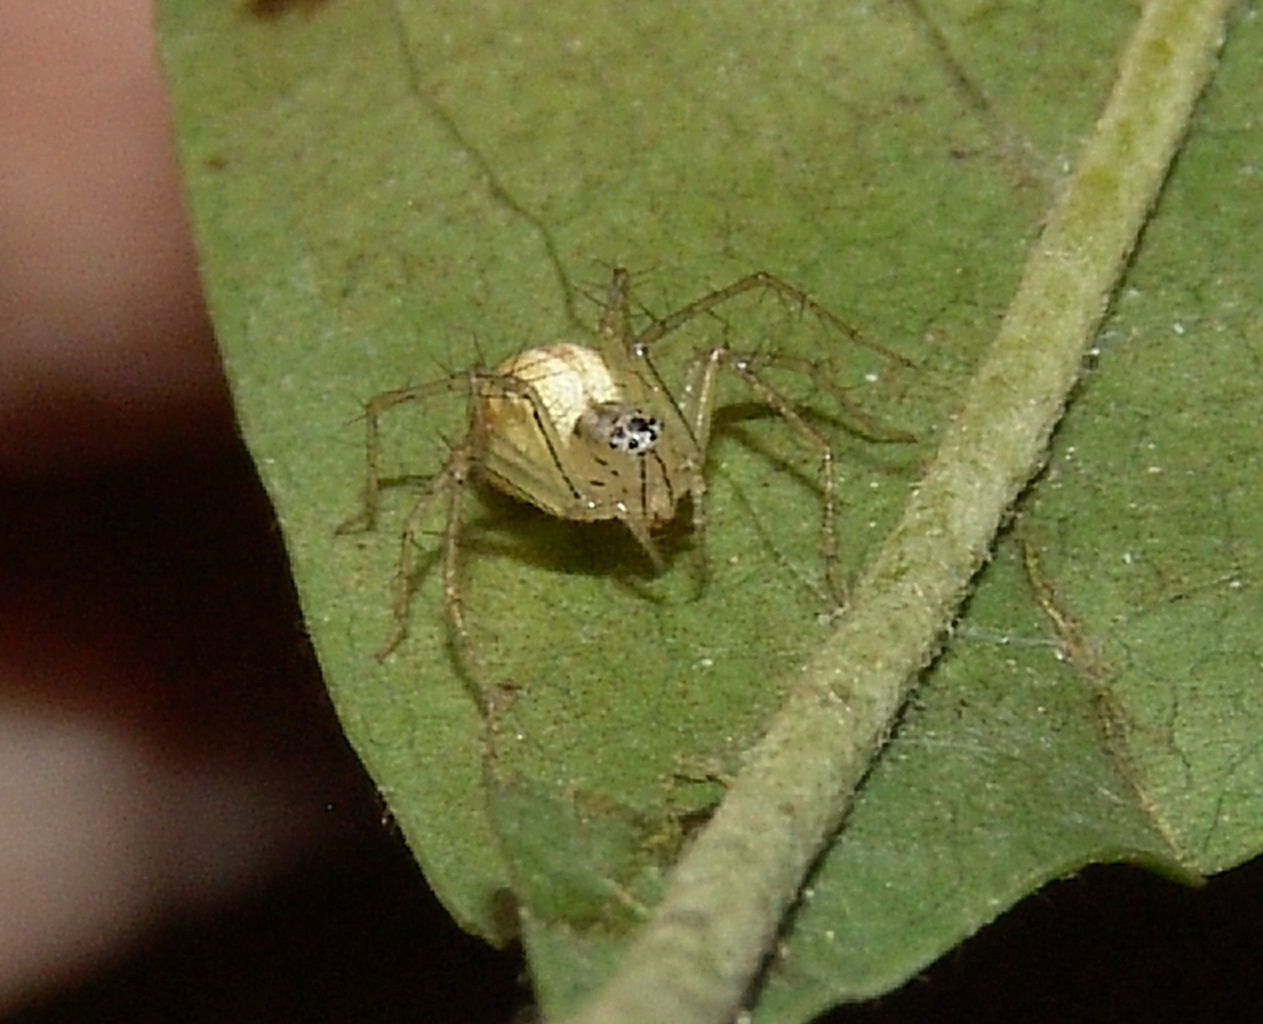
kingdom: Animalia
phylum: Arthropoda
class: Arachnida
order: Araneae
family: Oxyopidae
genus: Oxyopes
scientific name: Oxyopes salticus
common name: Lynx spiders
